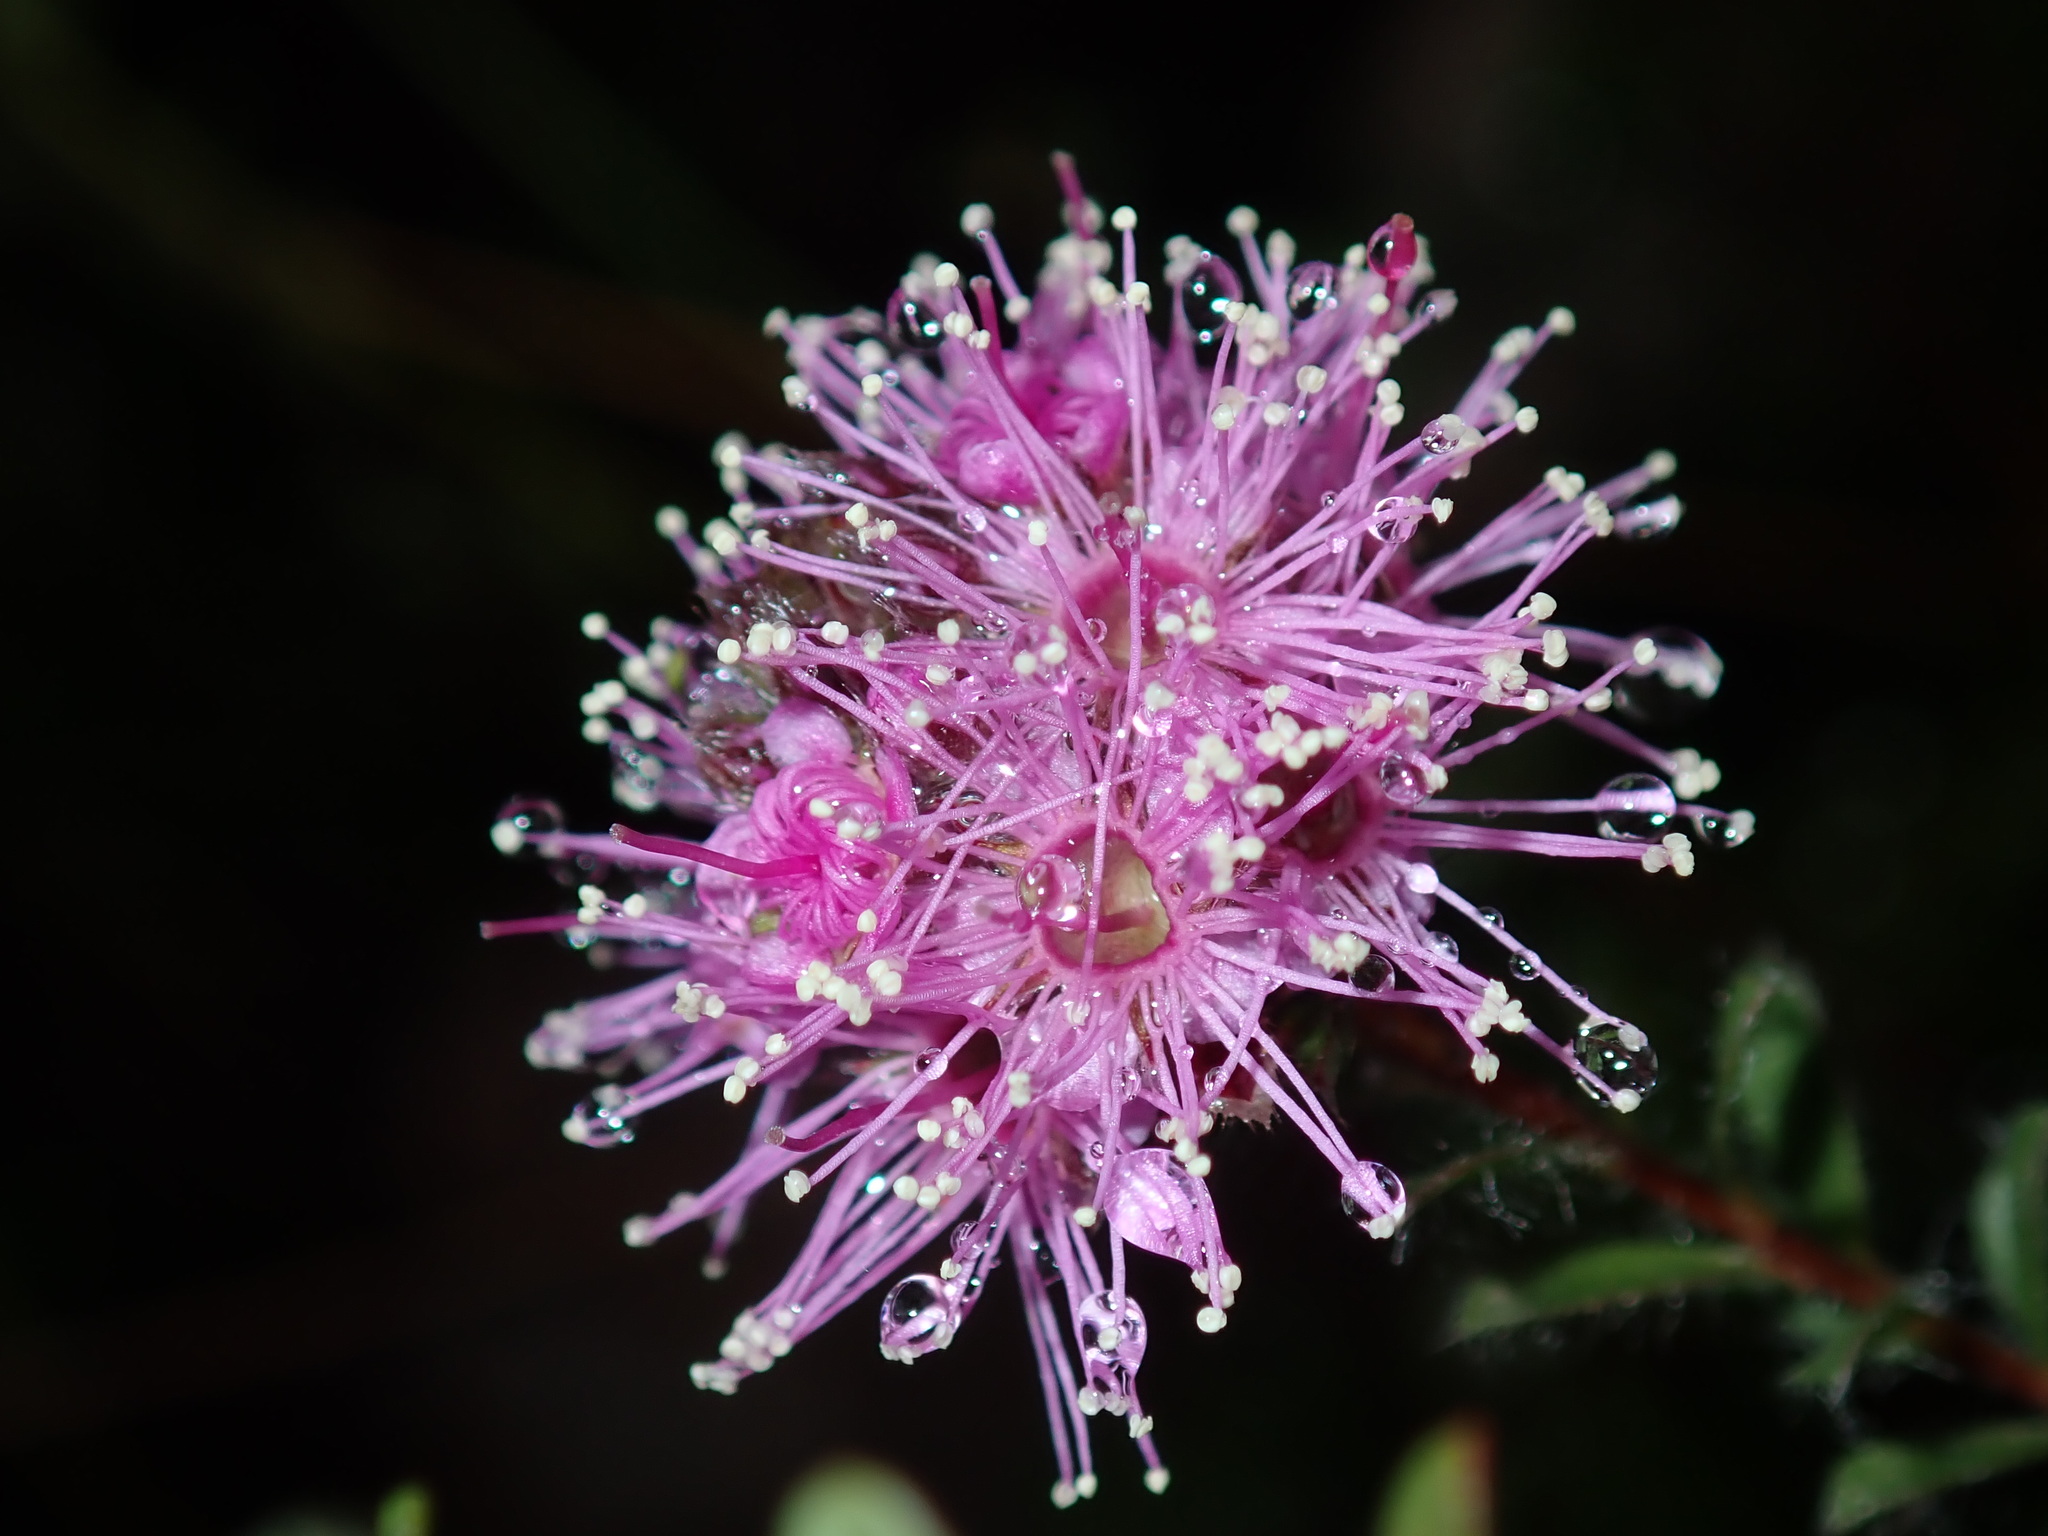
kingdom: Plantae
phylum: Tracheophyta
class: Magnoliopsida
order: Myrtales
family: Myrtaceae
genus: Kunzea
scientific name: Kunzea capitata
